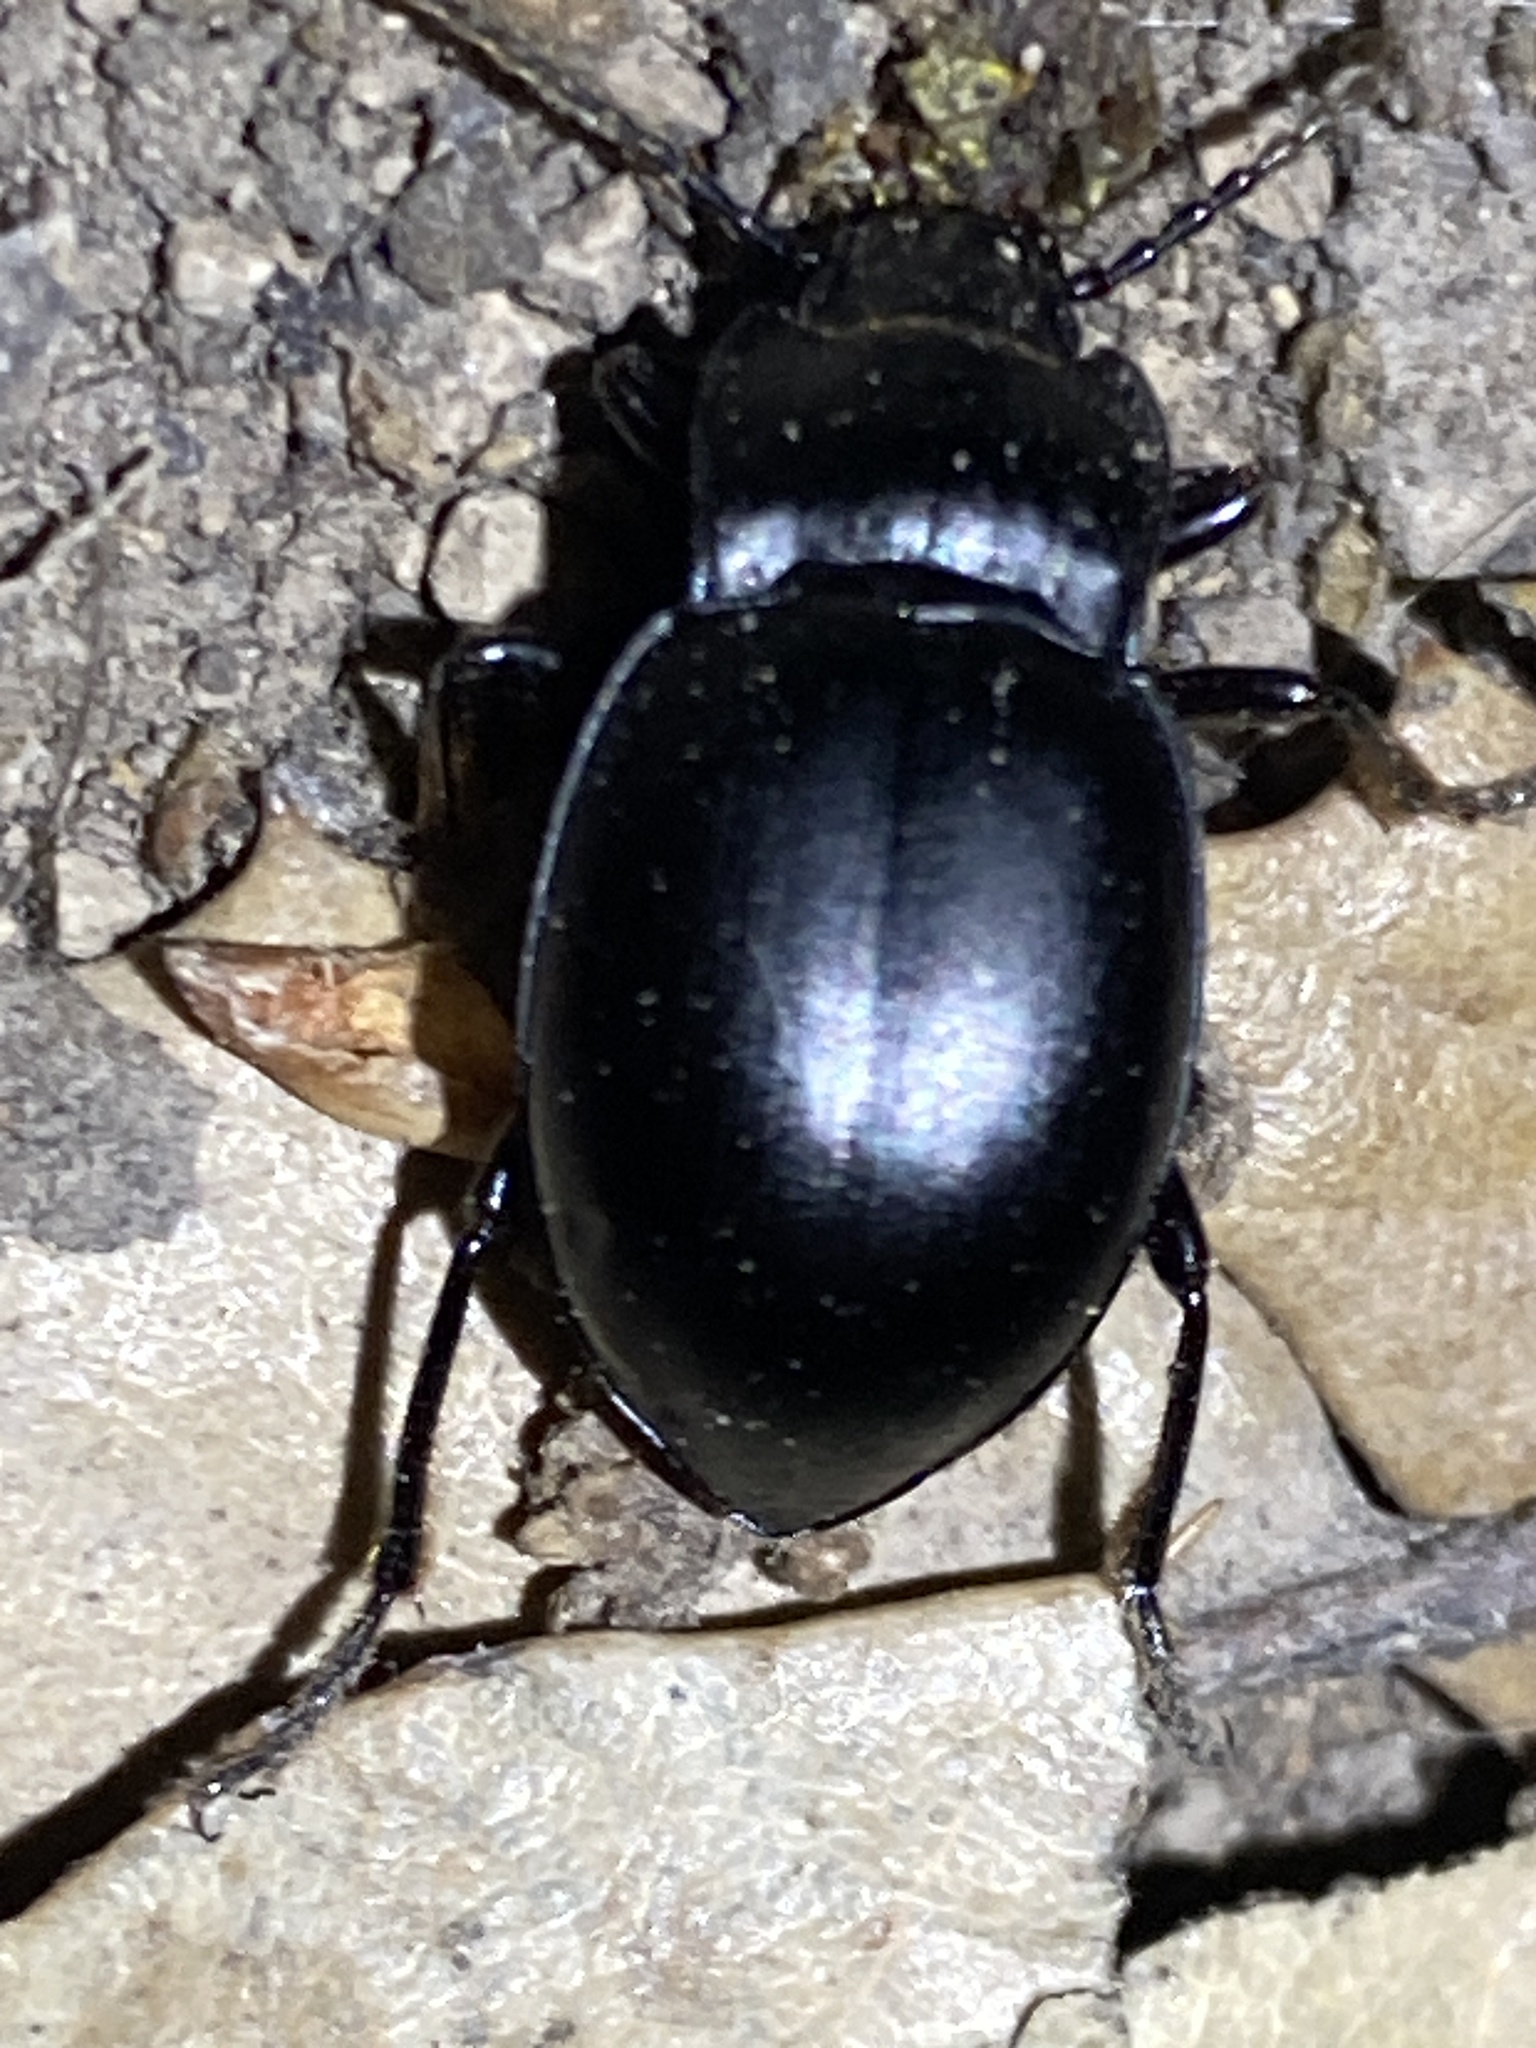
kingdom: Animalia
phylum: Arthropoda
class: Insecta
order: Coleoptera
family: Carabidae
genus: Metrius
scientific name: Metrius contractus
